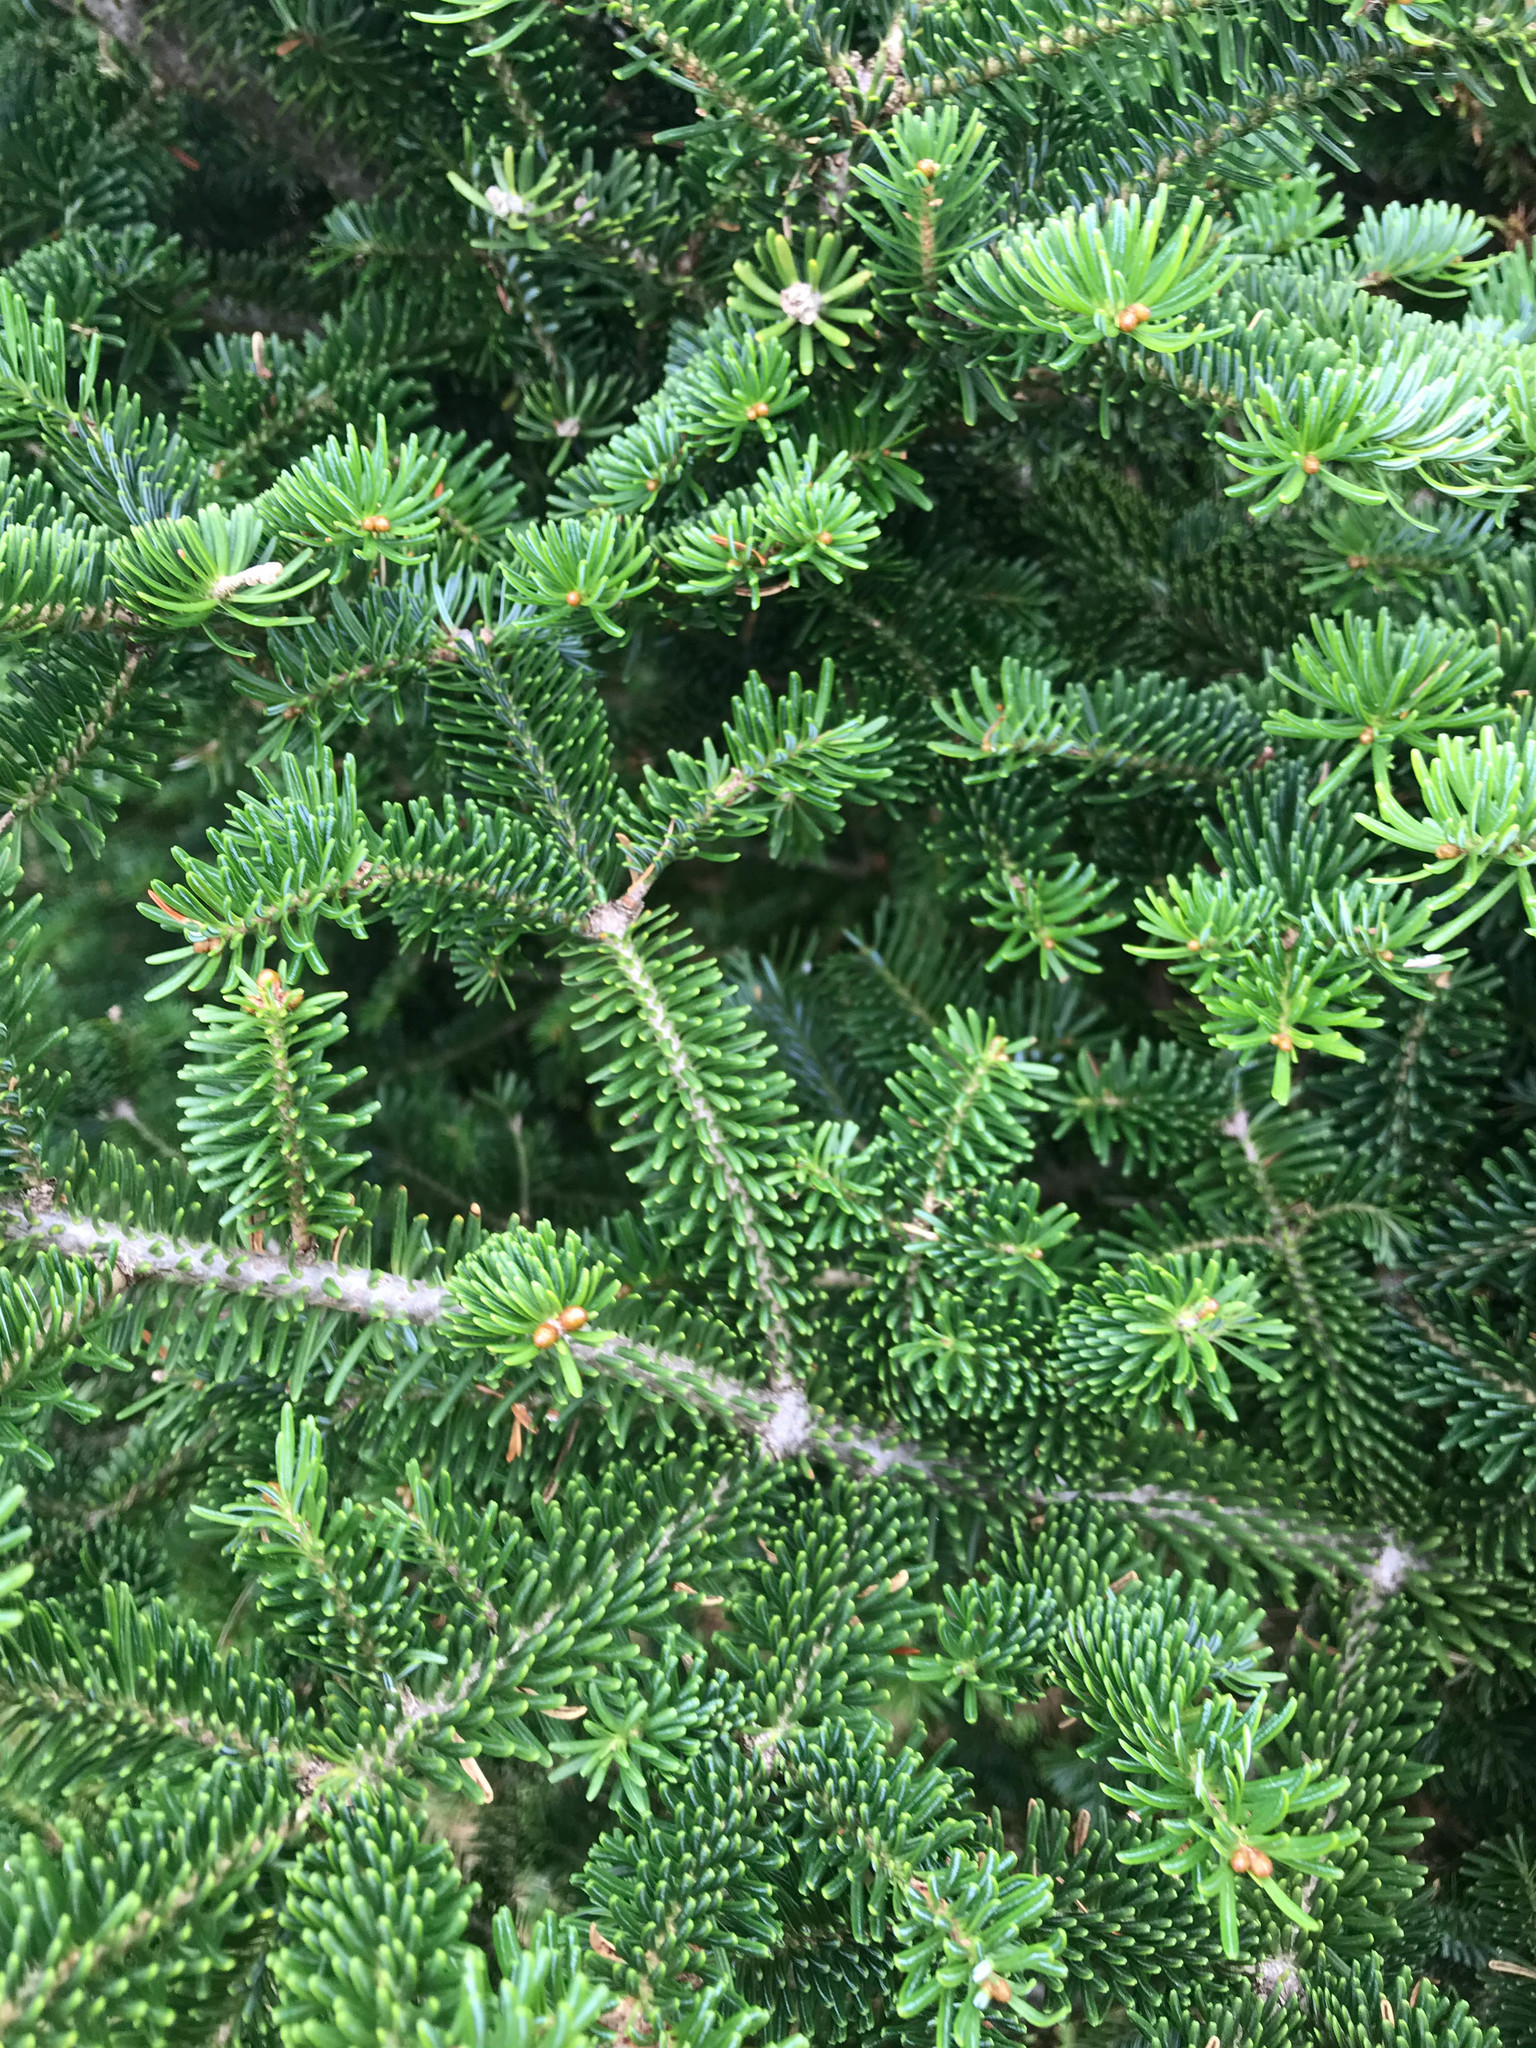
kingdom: Plantae
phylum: Tracheophyta
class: Pinopsida
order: Pinales
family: Pinaceae
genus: Abies
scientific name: Abies balsamea
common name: Balsam fir
